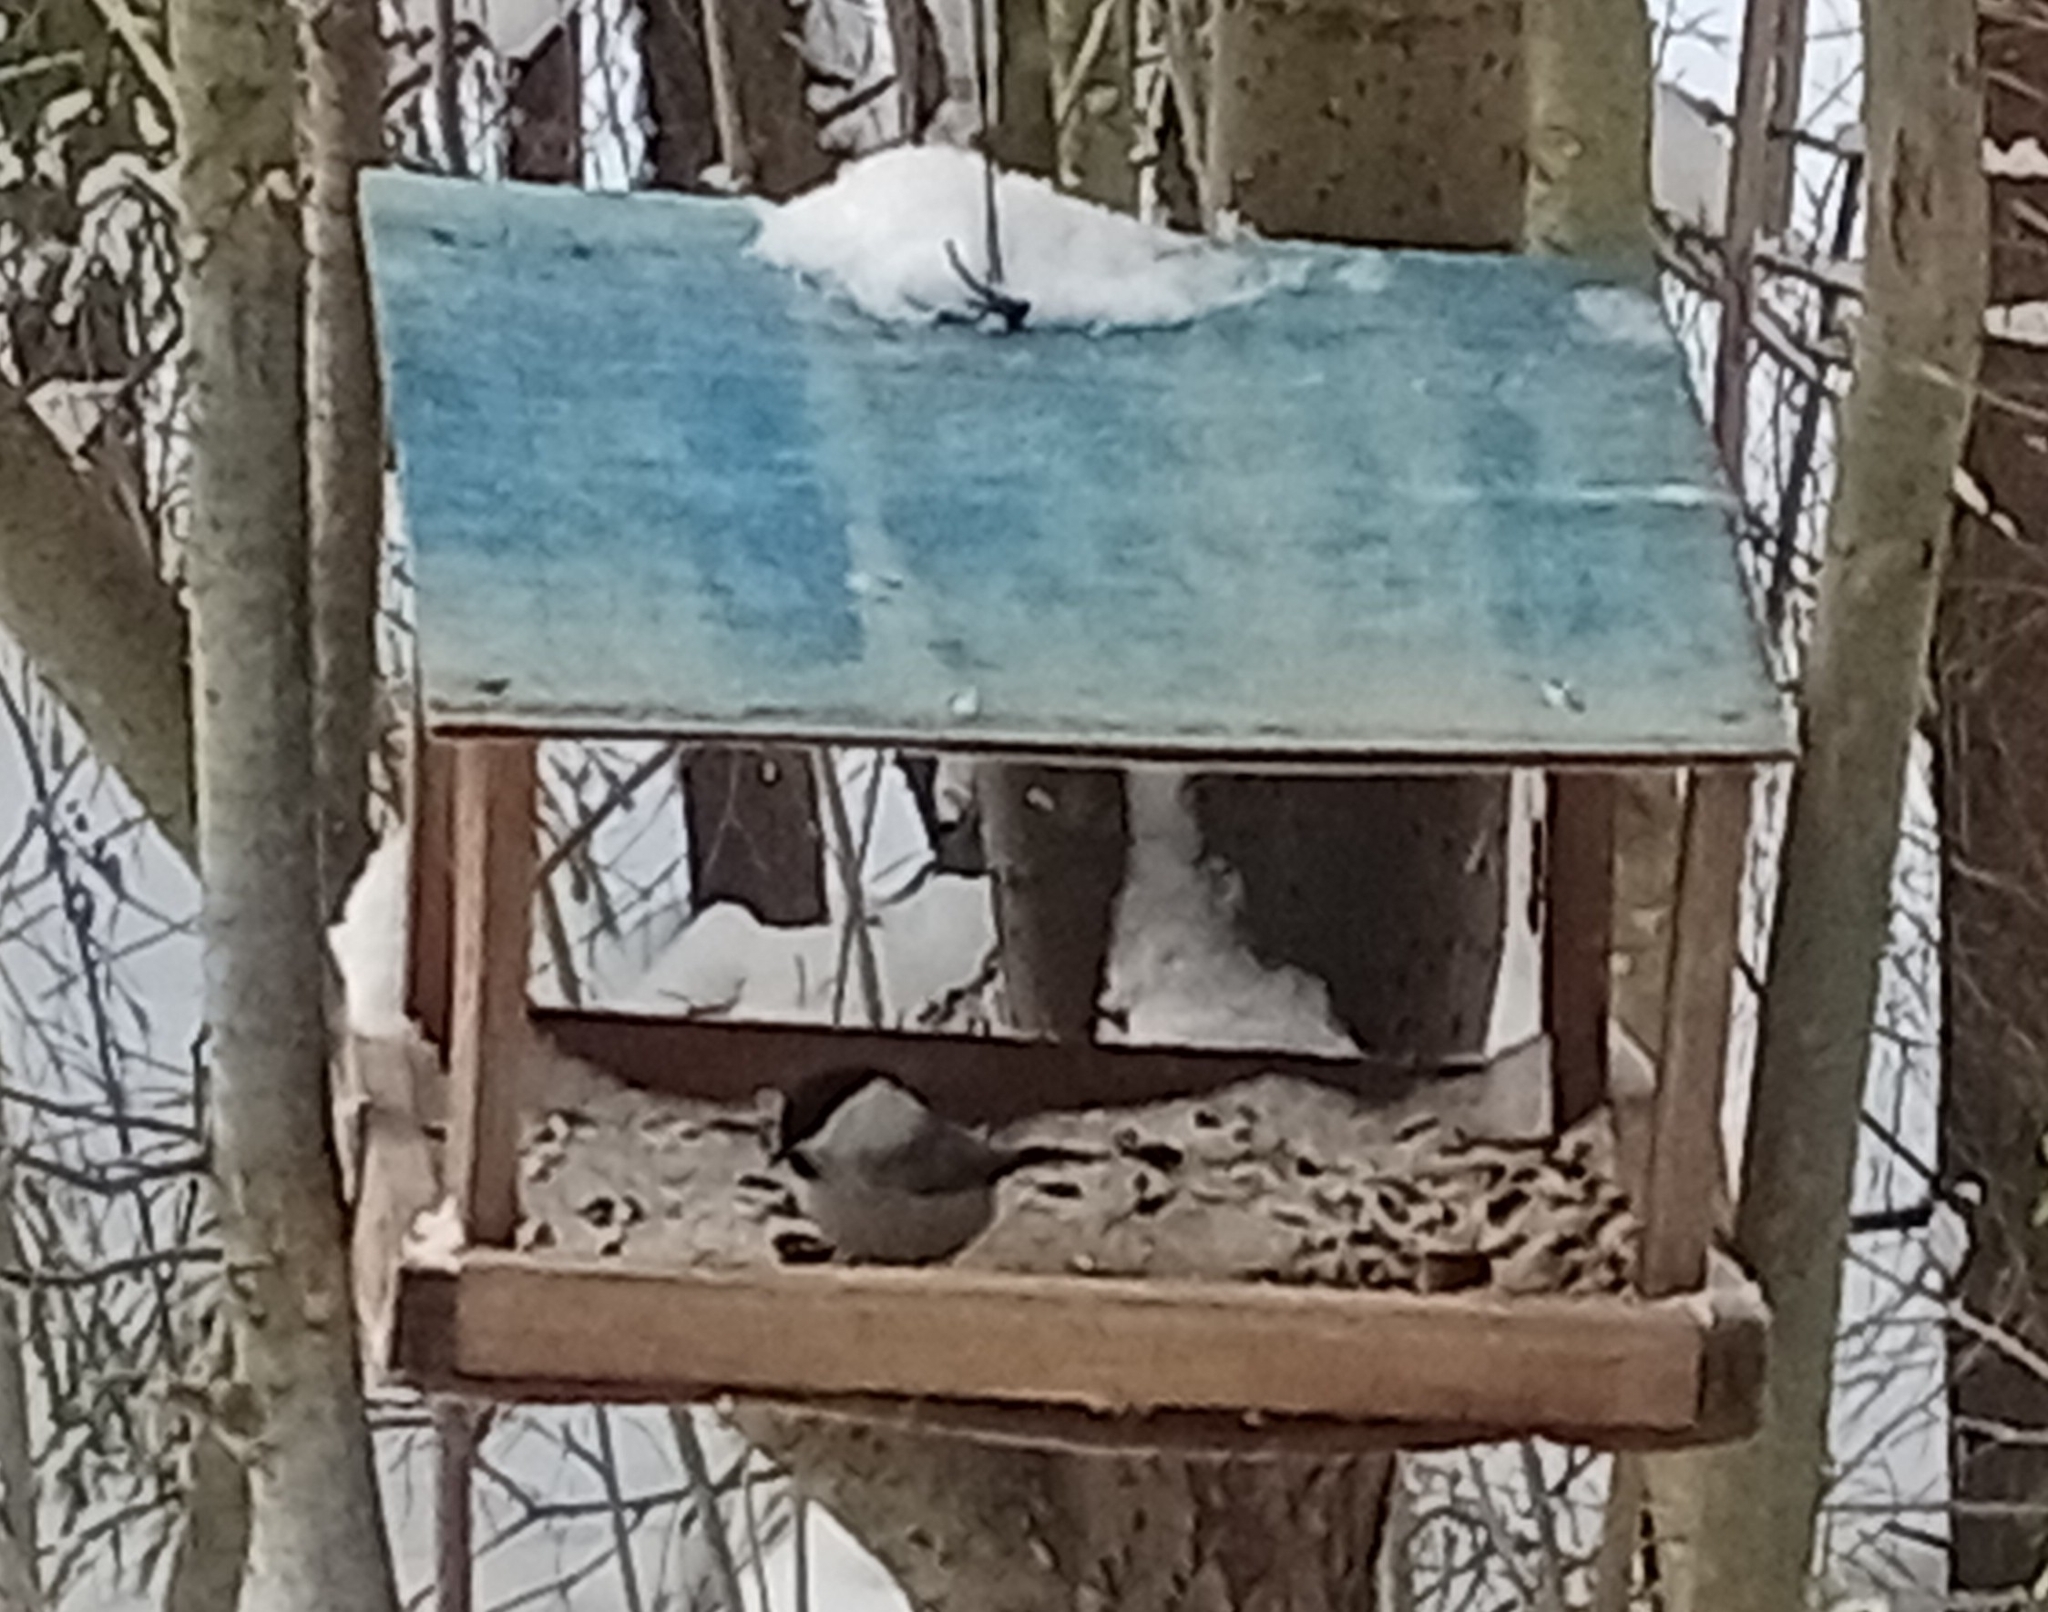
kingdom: Animalia
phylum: Chordata
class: Aves
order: Passeriformes
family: Paridae
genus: Poecile
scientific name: Poecile montanus
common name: Willow tit
